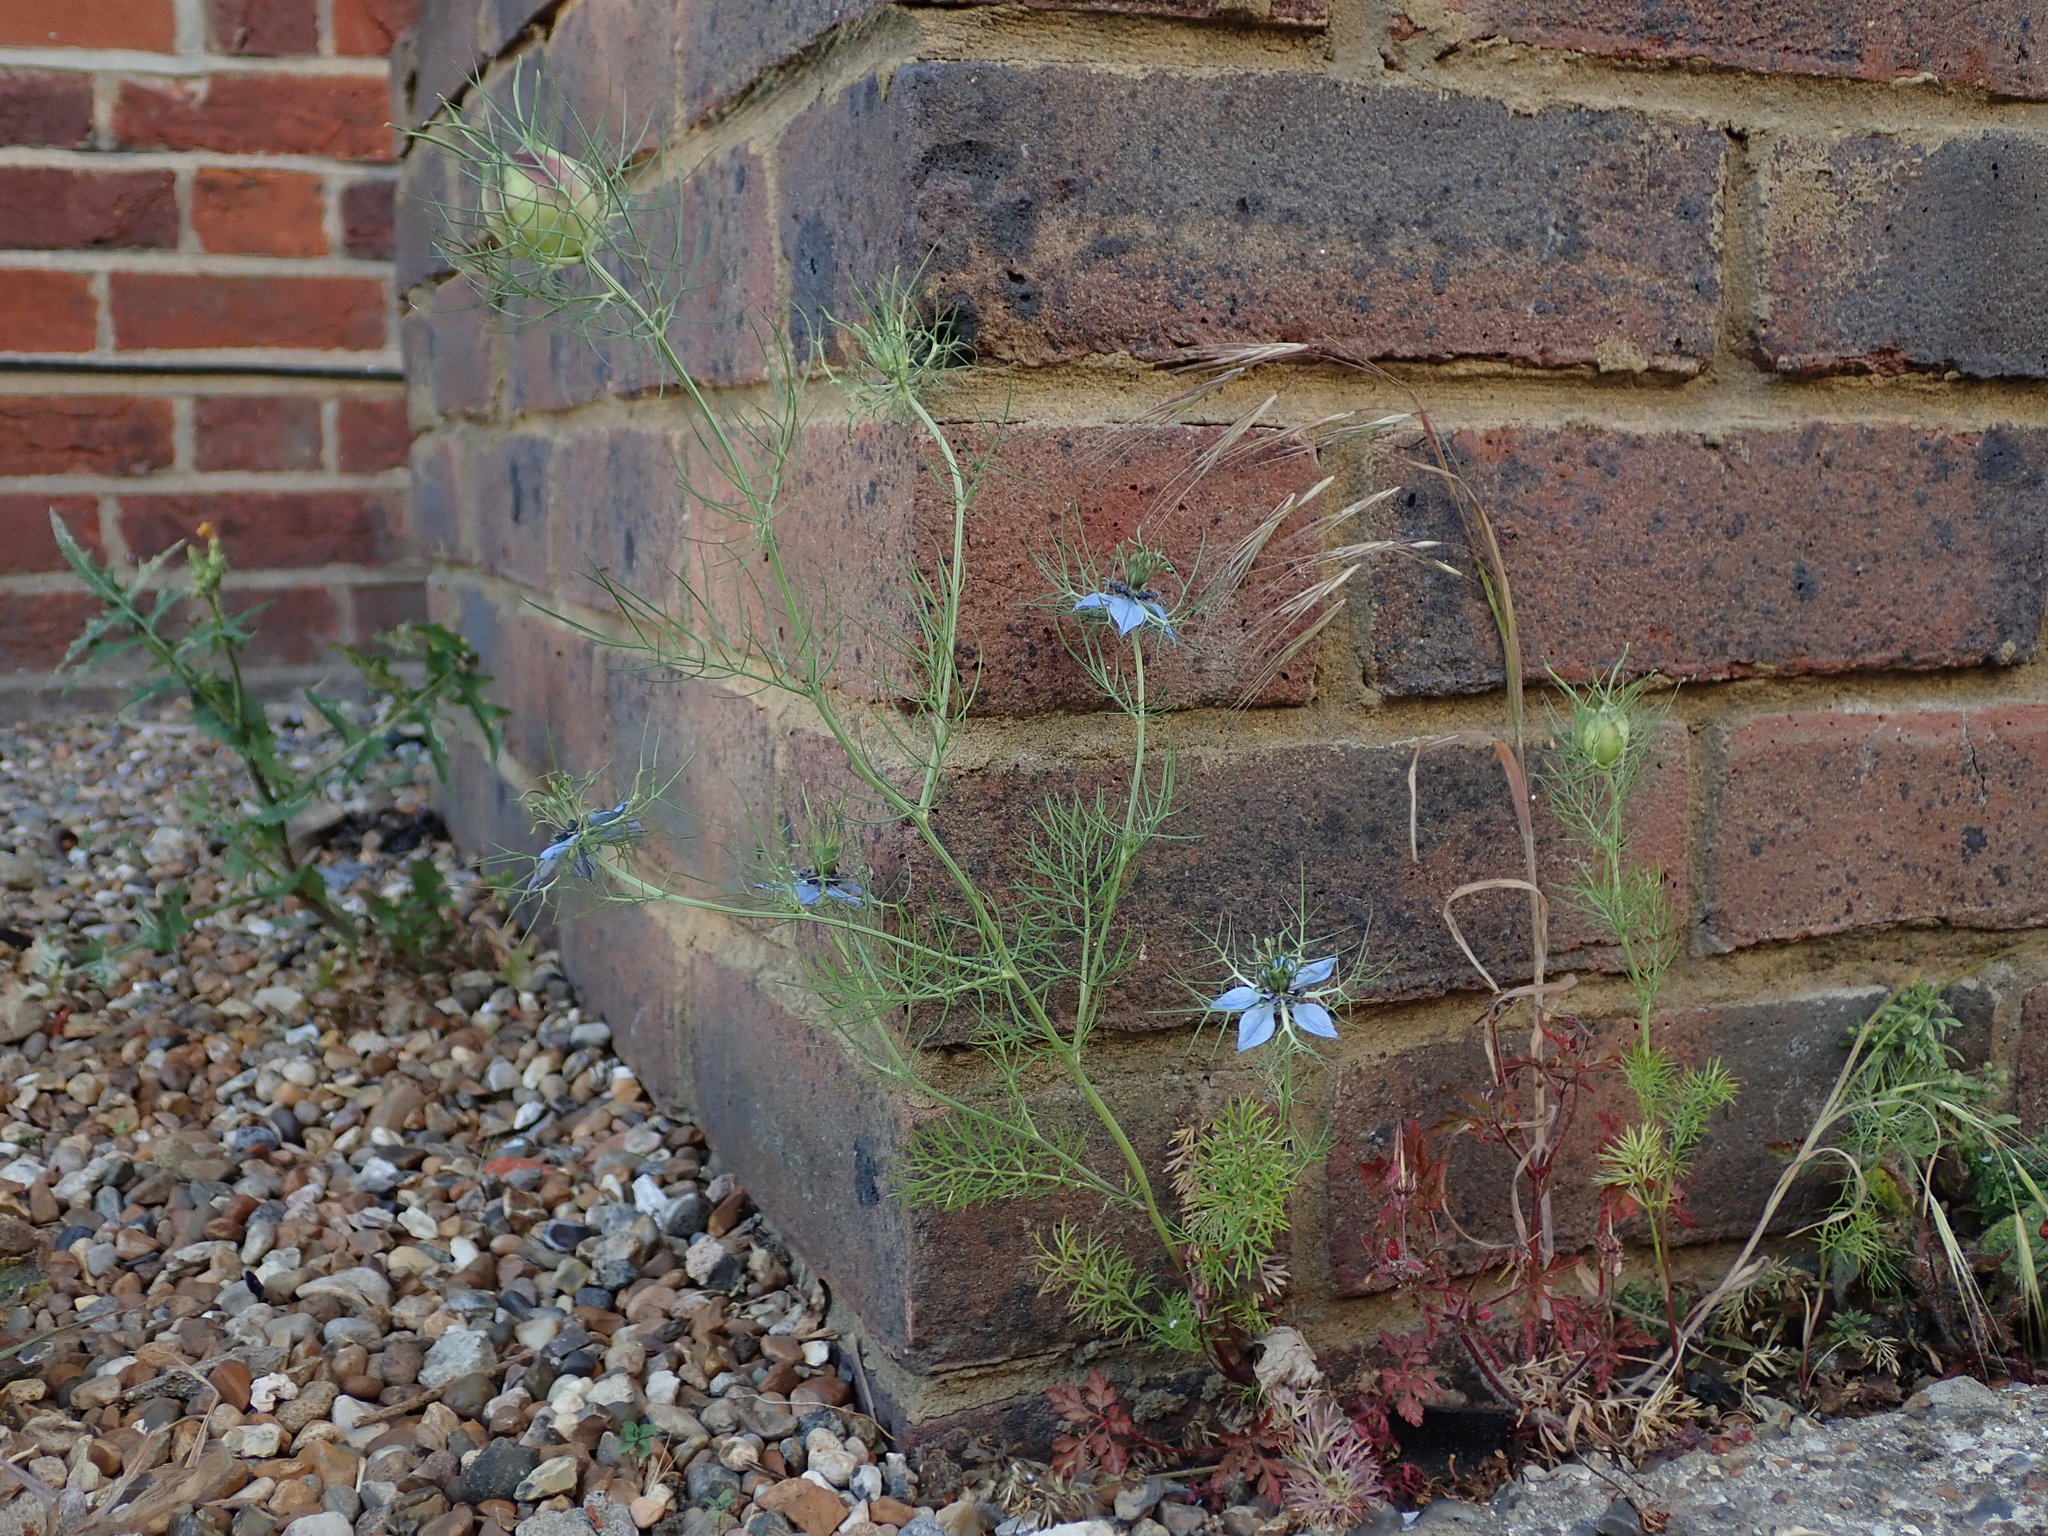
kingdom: Plantae
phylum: Tracheophyta
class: Magnoliopsida
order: Ranunculales
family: Ranunculaceae
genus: Nigella
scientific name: Nigella damascena
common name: Love-in-a-mist
